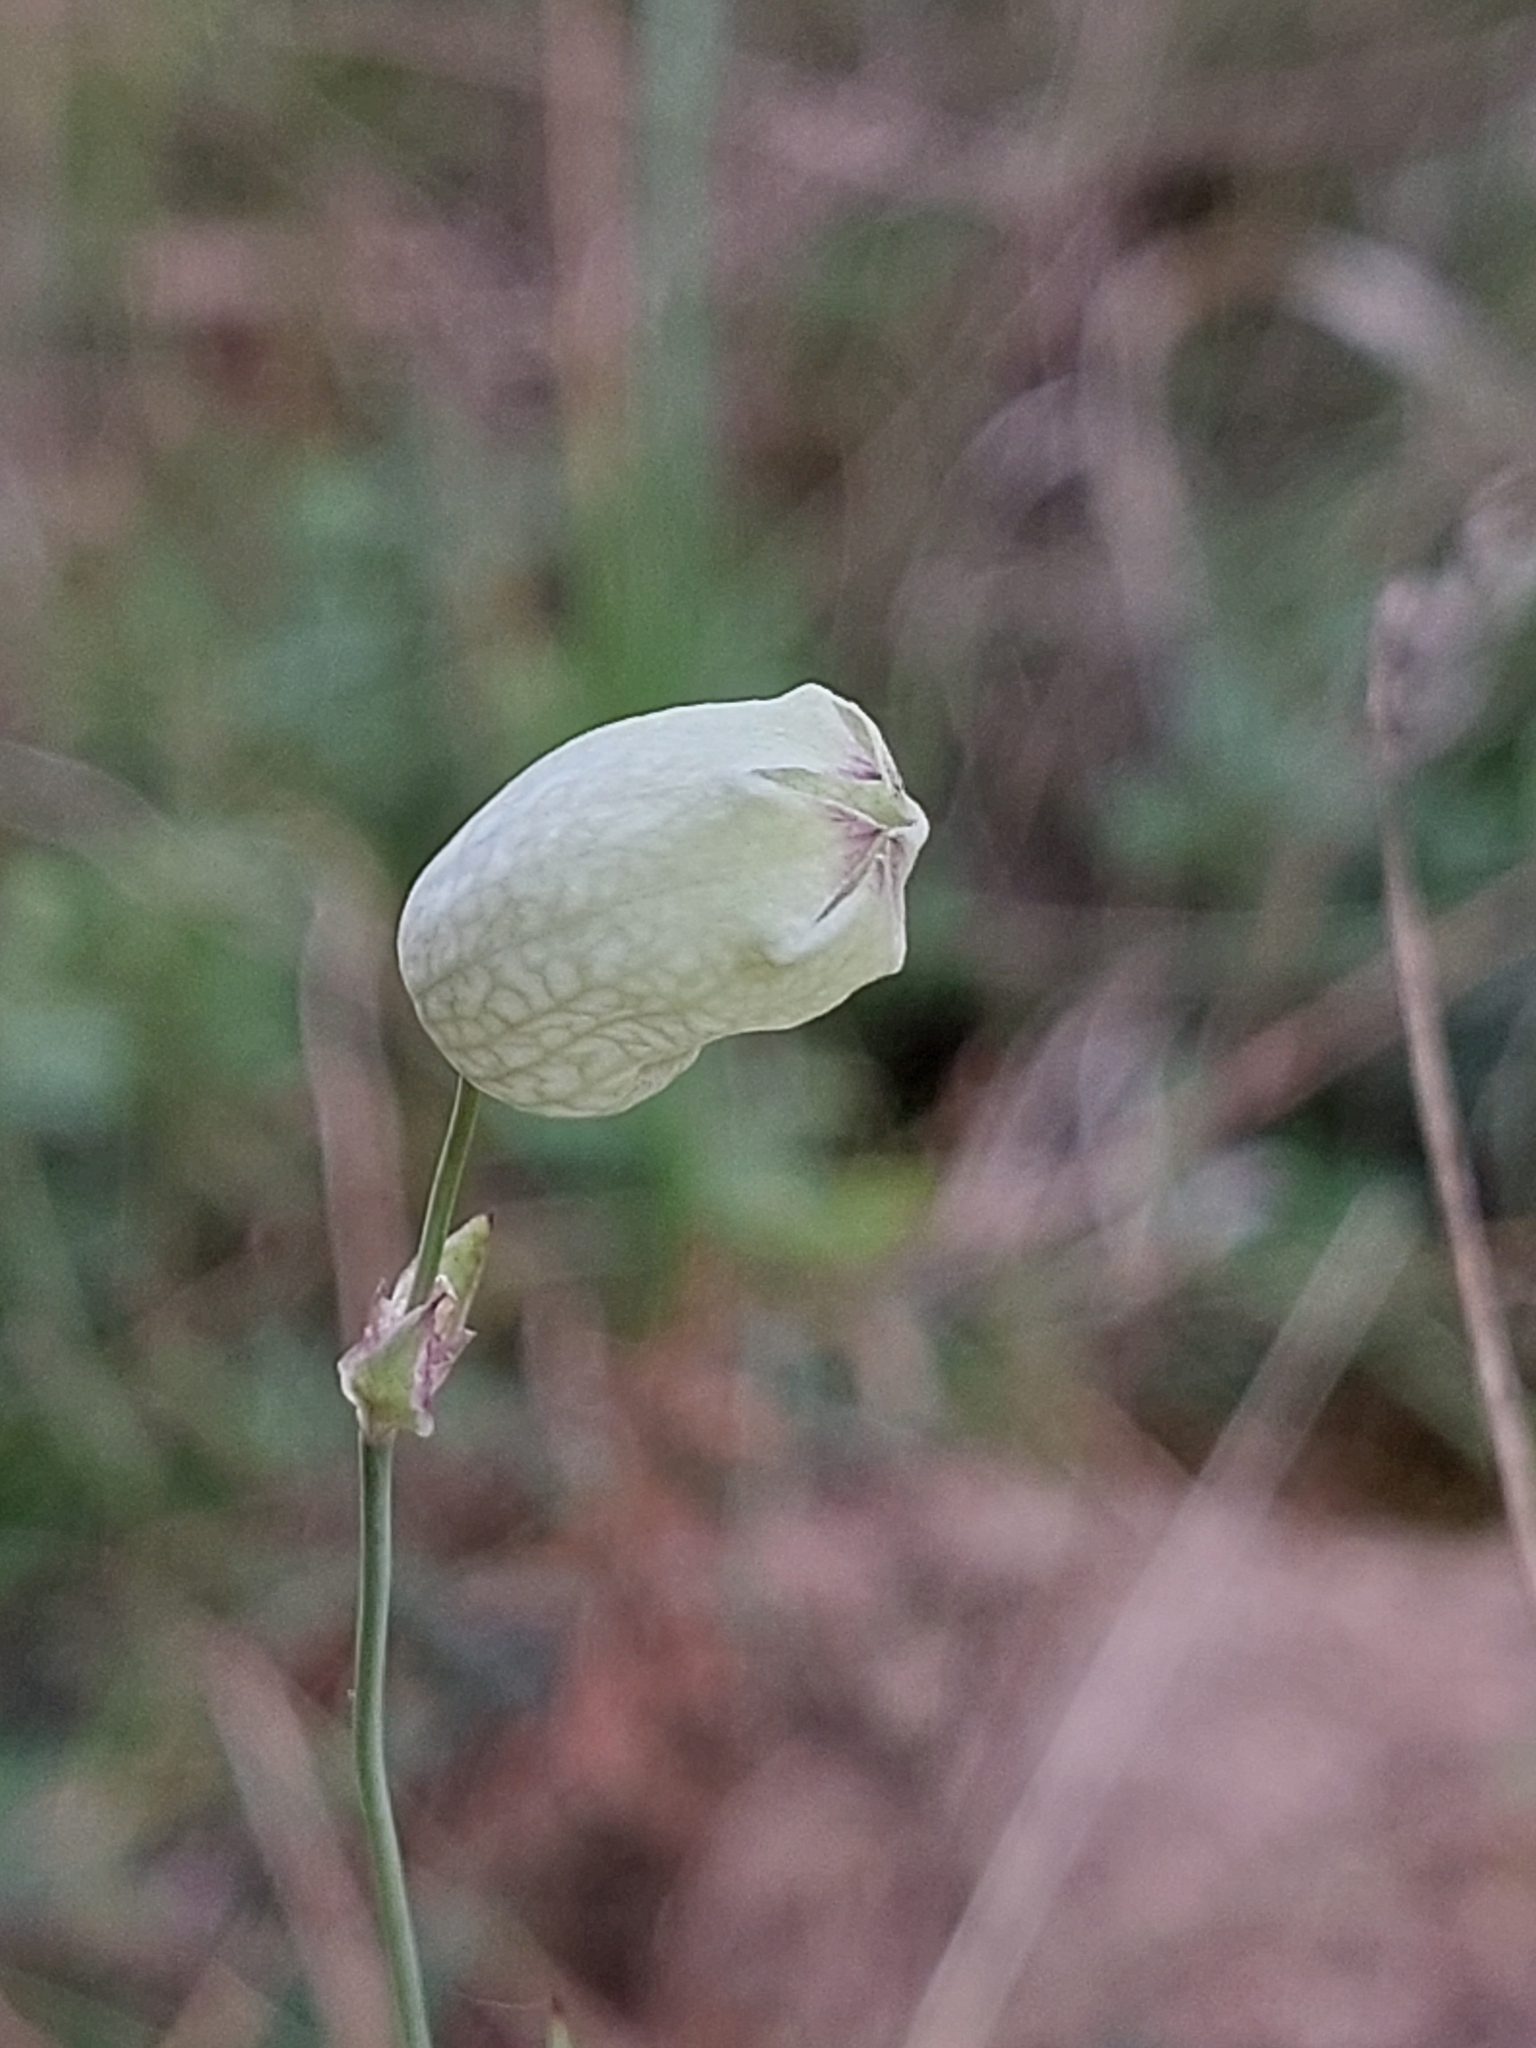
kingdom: Plantae
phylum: Tracheophyta
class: Magnoliopsida
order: Caryophyllales
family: Caryophyllaceae
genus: Silene
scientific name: Silene vulgaris
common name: Bladder campion
